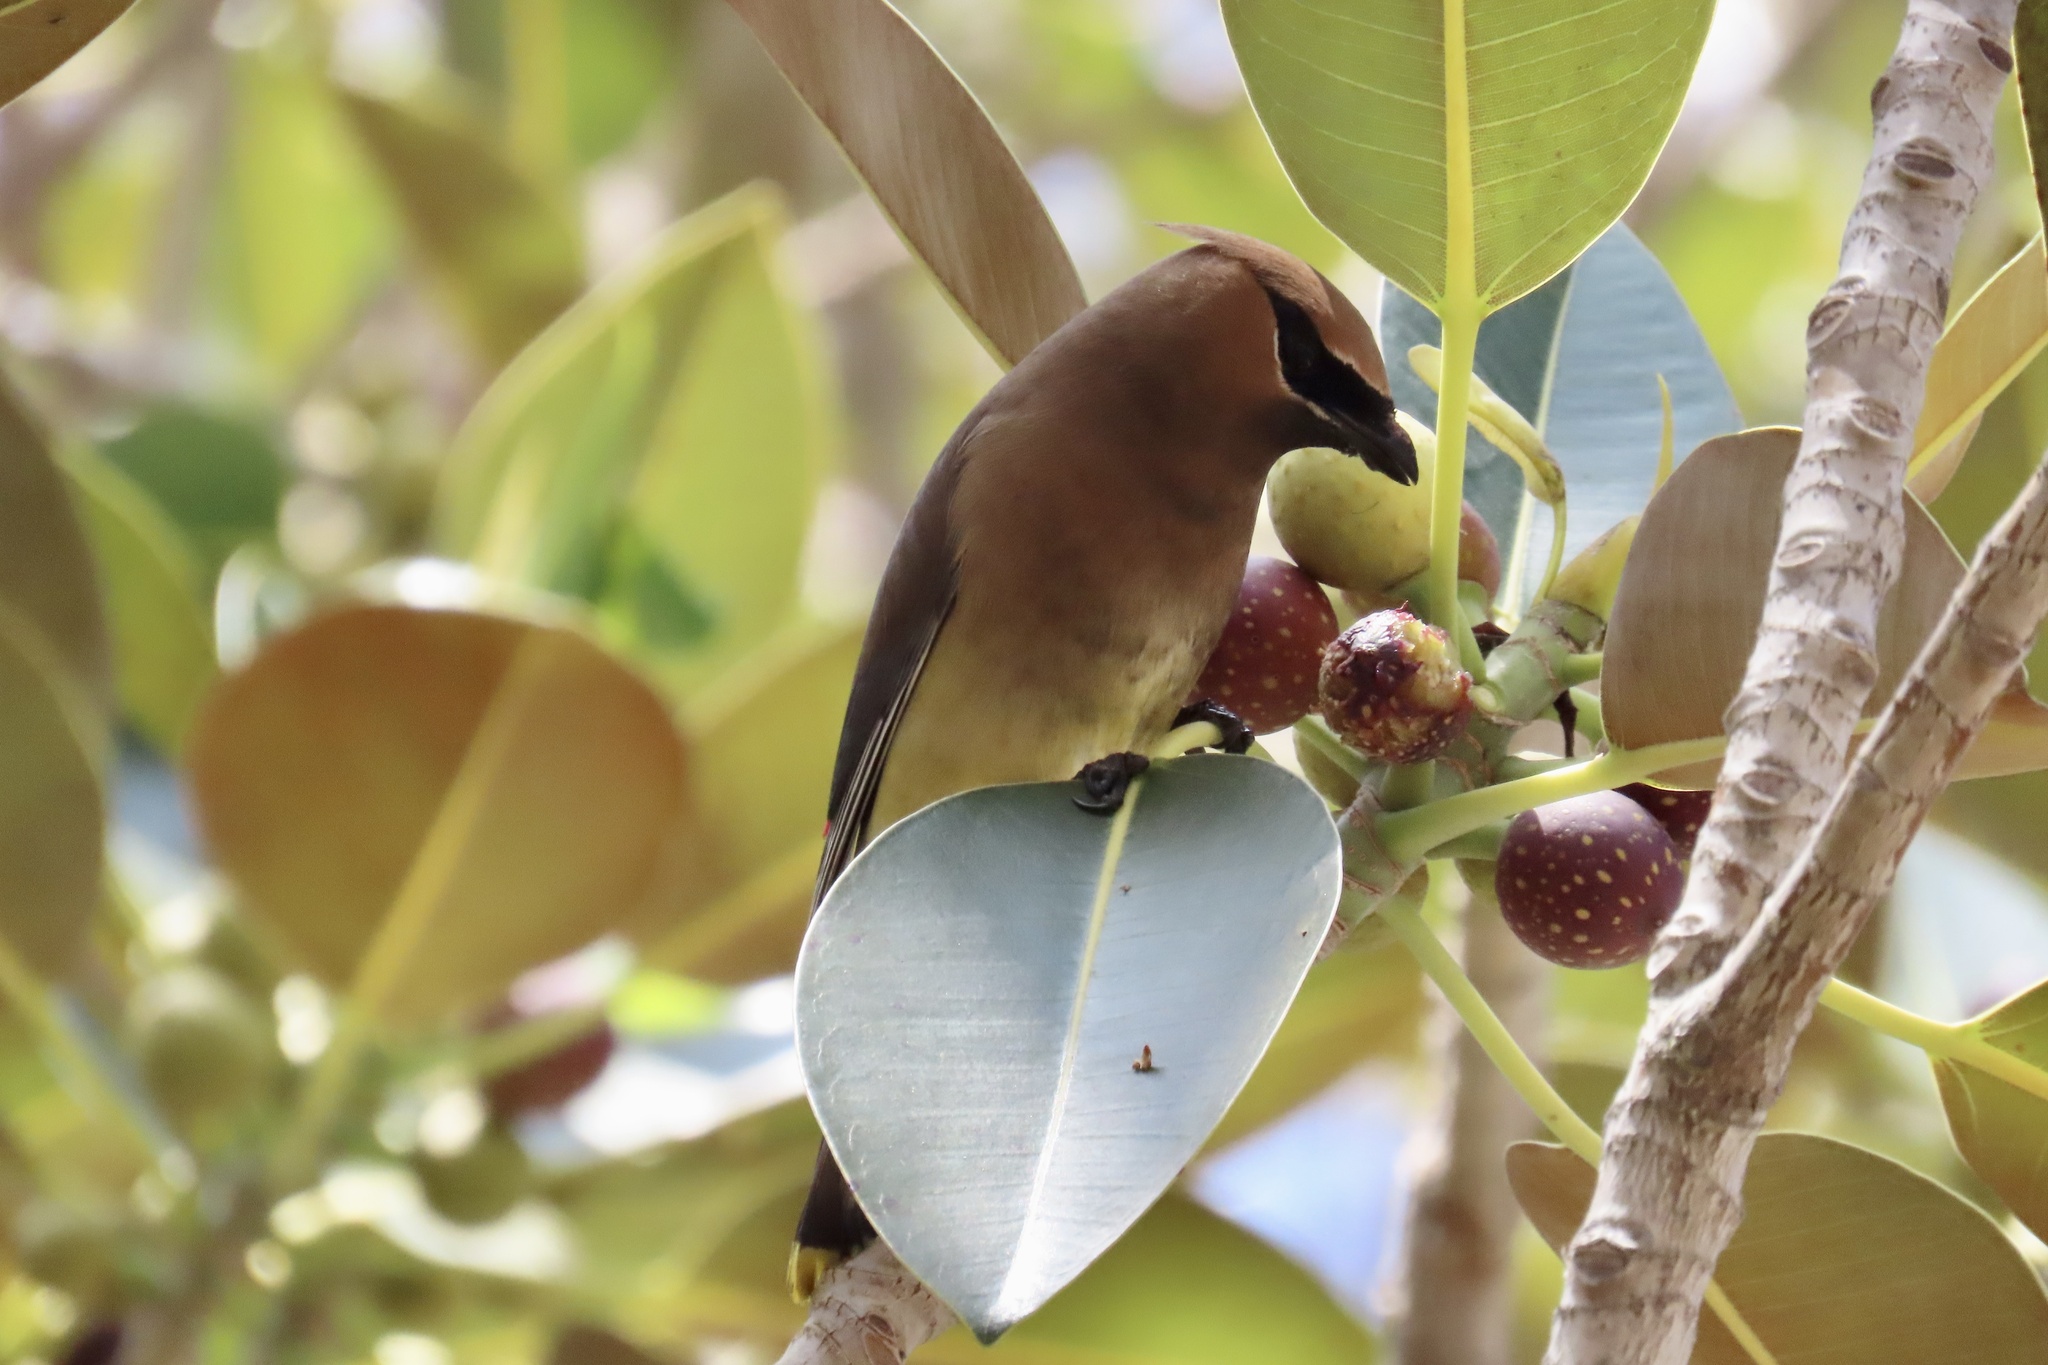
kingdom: Animalia
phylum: Chordata
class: Aves
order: Passeriformes
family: Bombycillidae
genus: Bombycilla
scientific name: Bombycilla cedrorum
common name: Cedar waxwing
